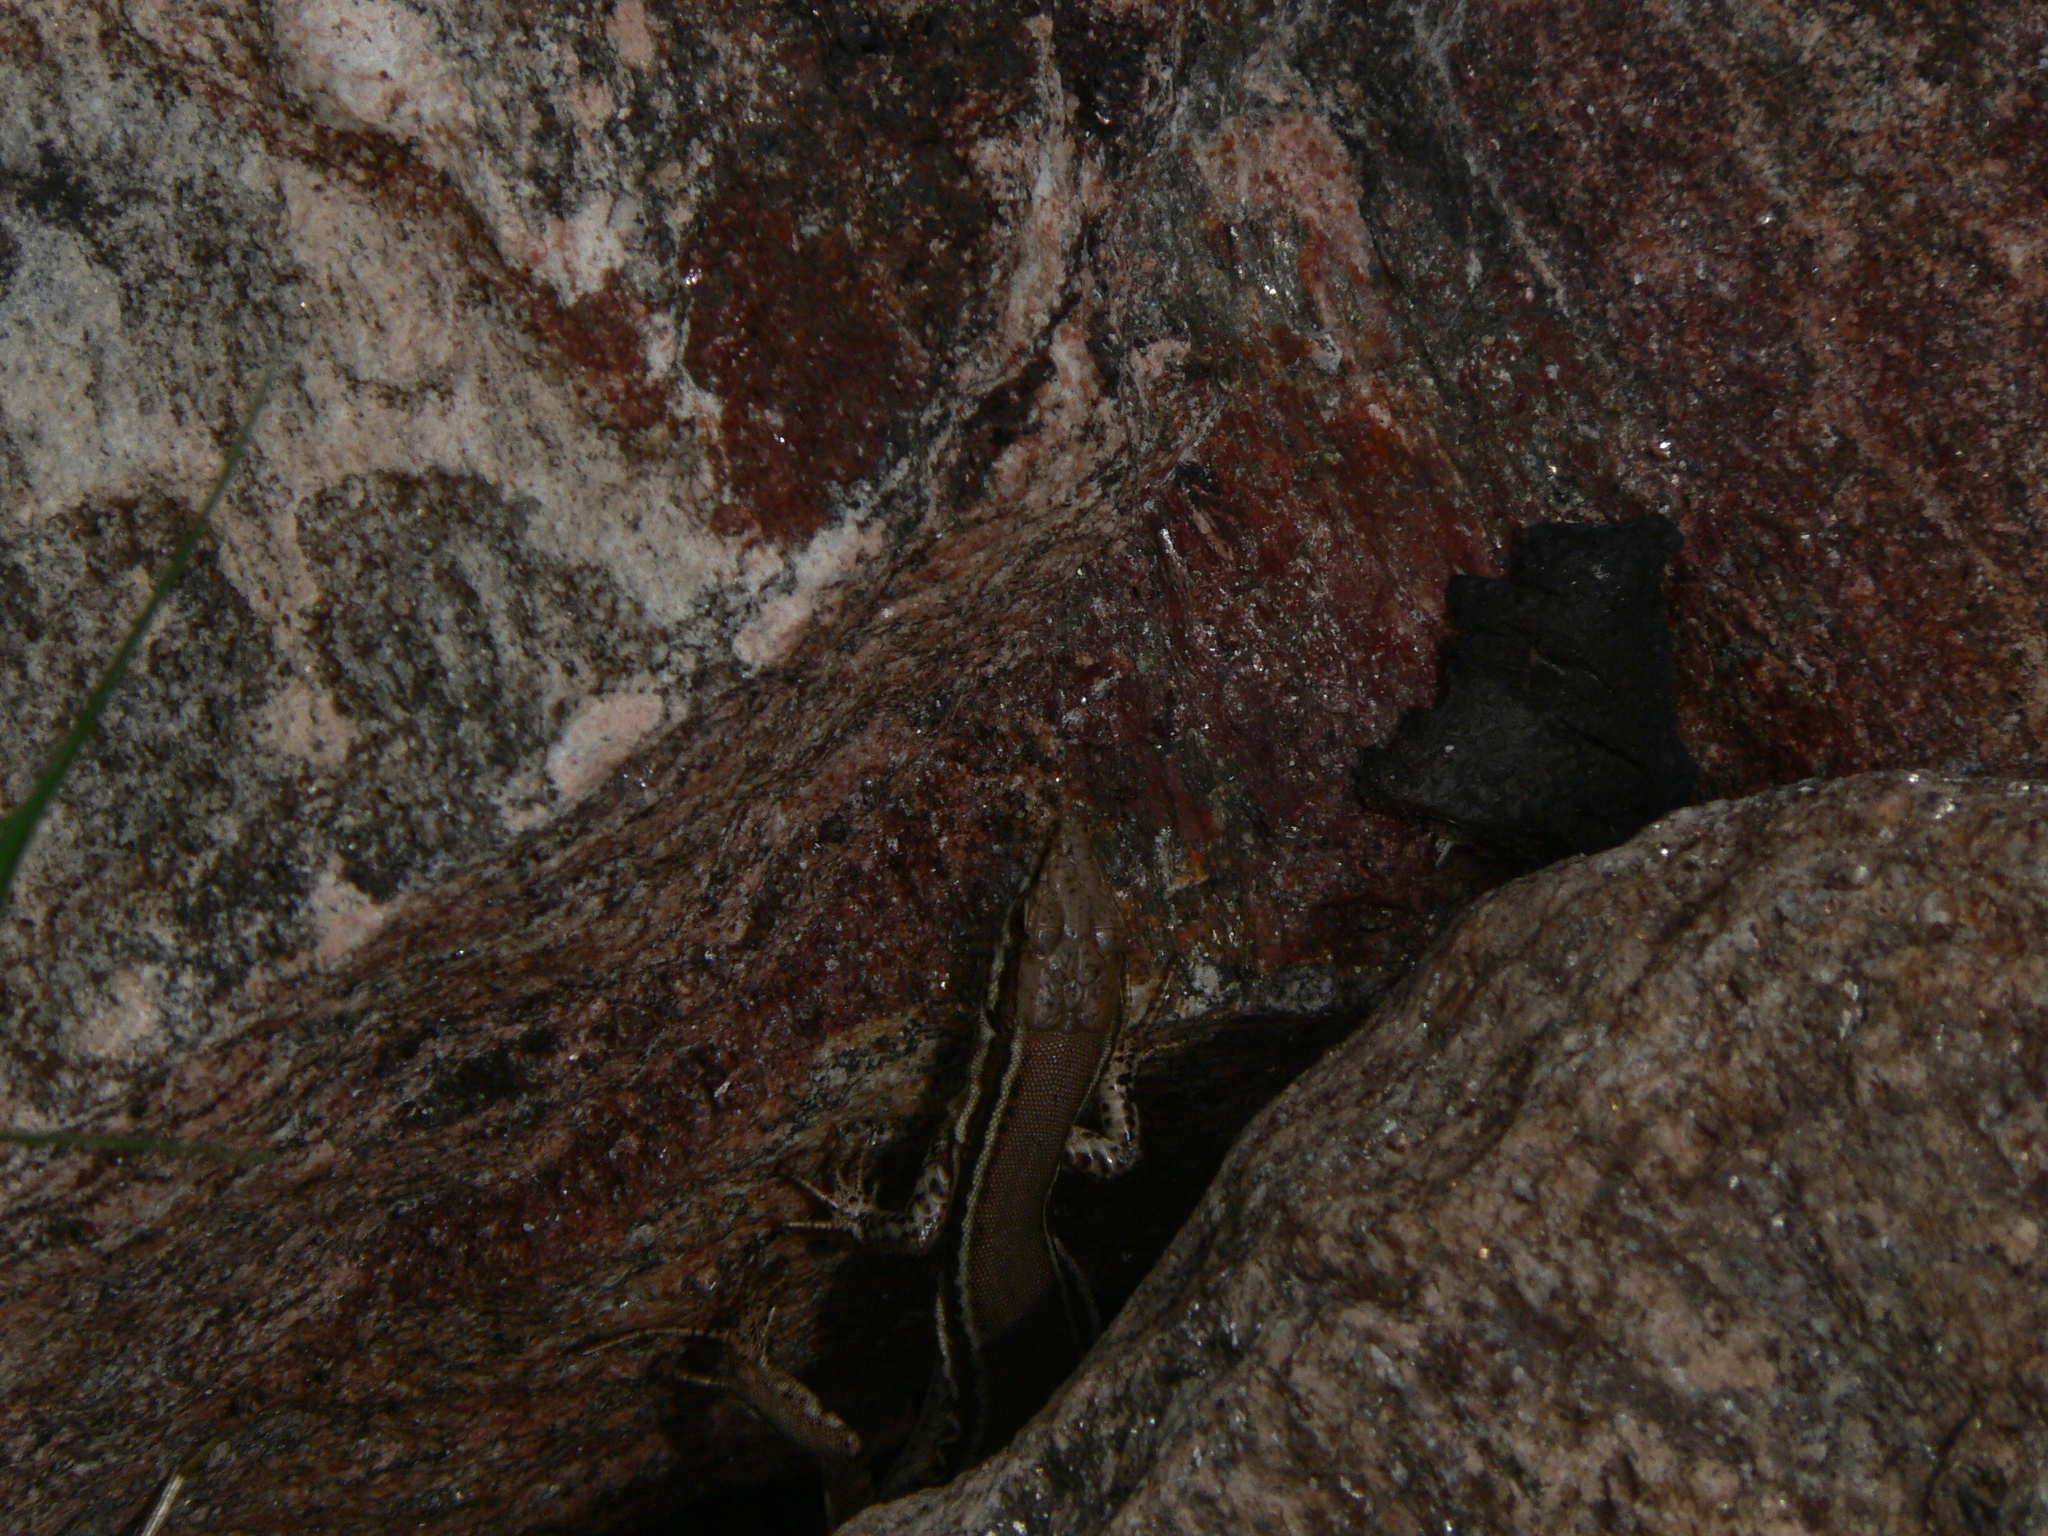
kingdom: Animalia
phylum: Chordata
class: Squamata
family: Lacertidae
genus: Podarcis
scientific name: Podarcis muralis
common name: Common wall lizard
